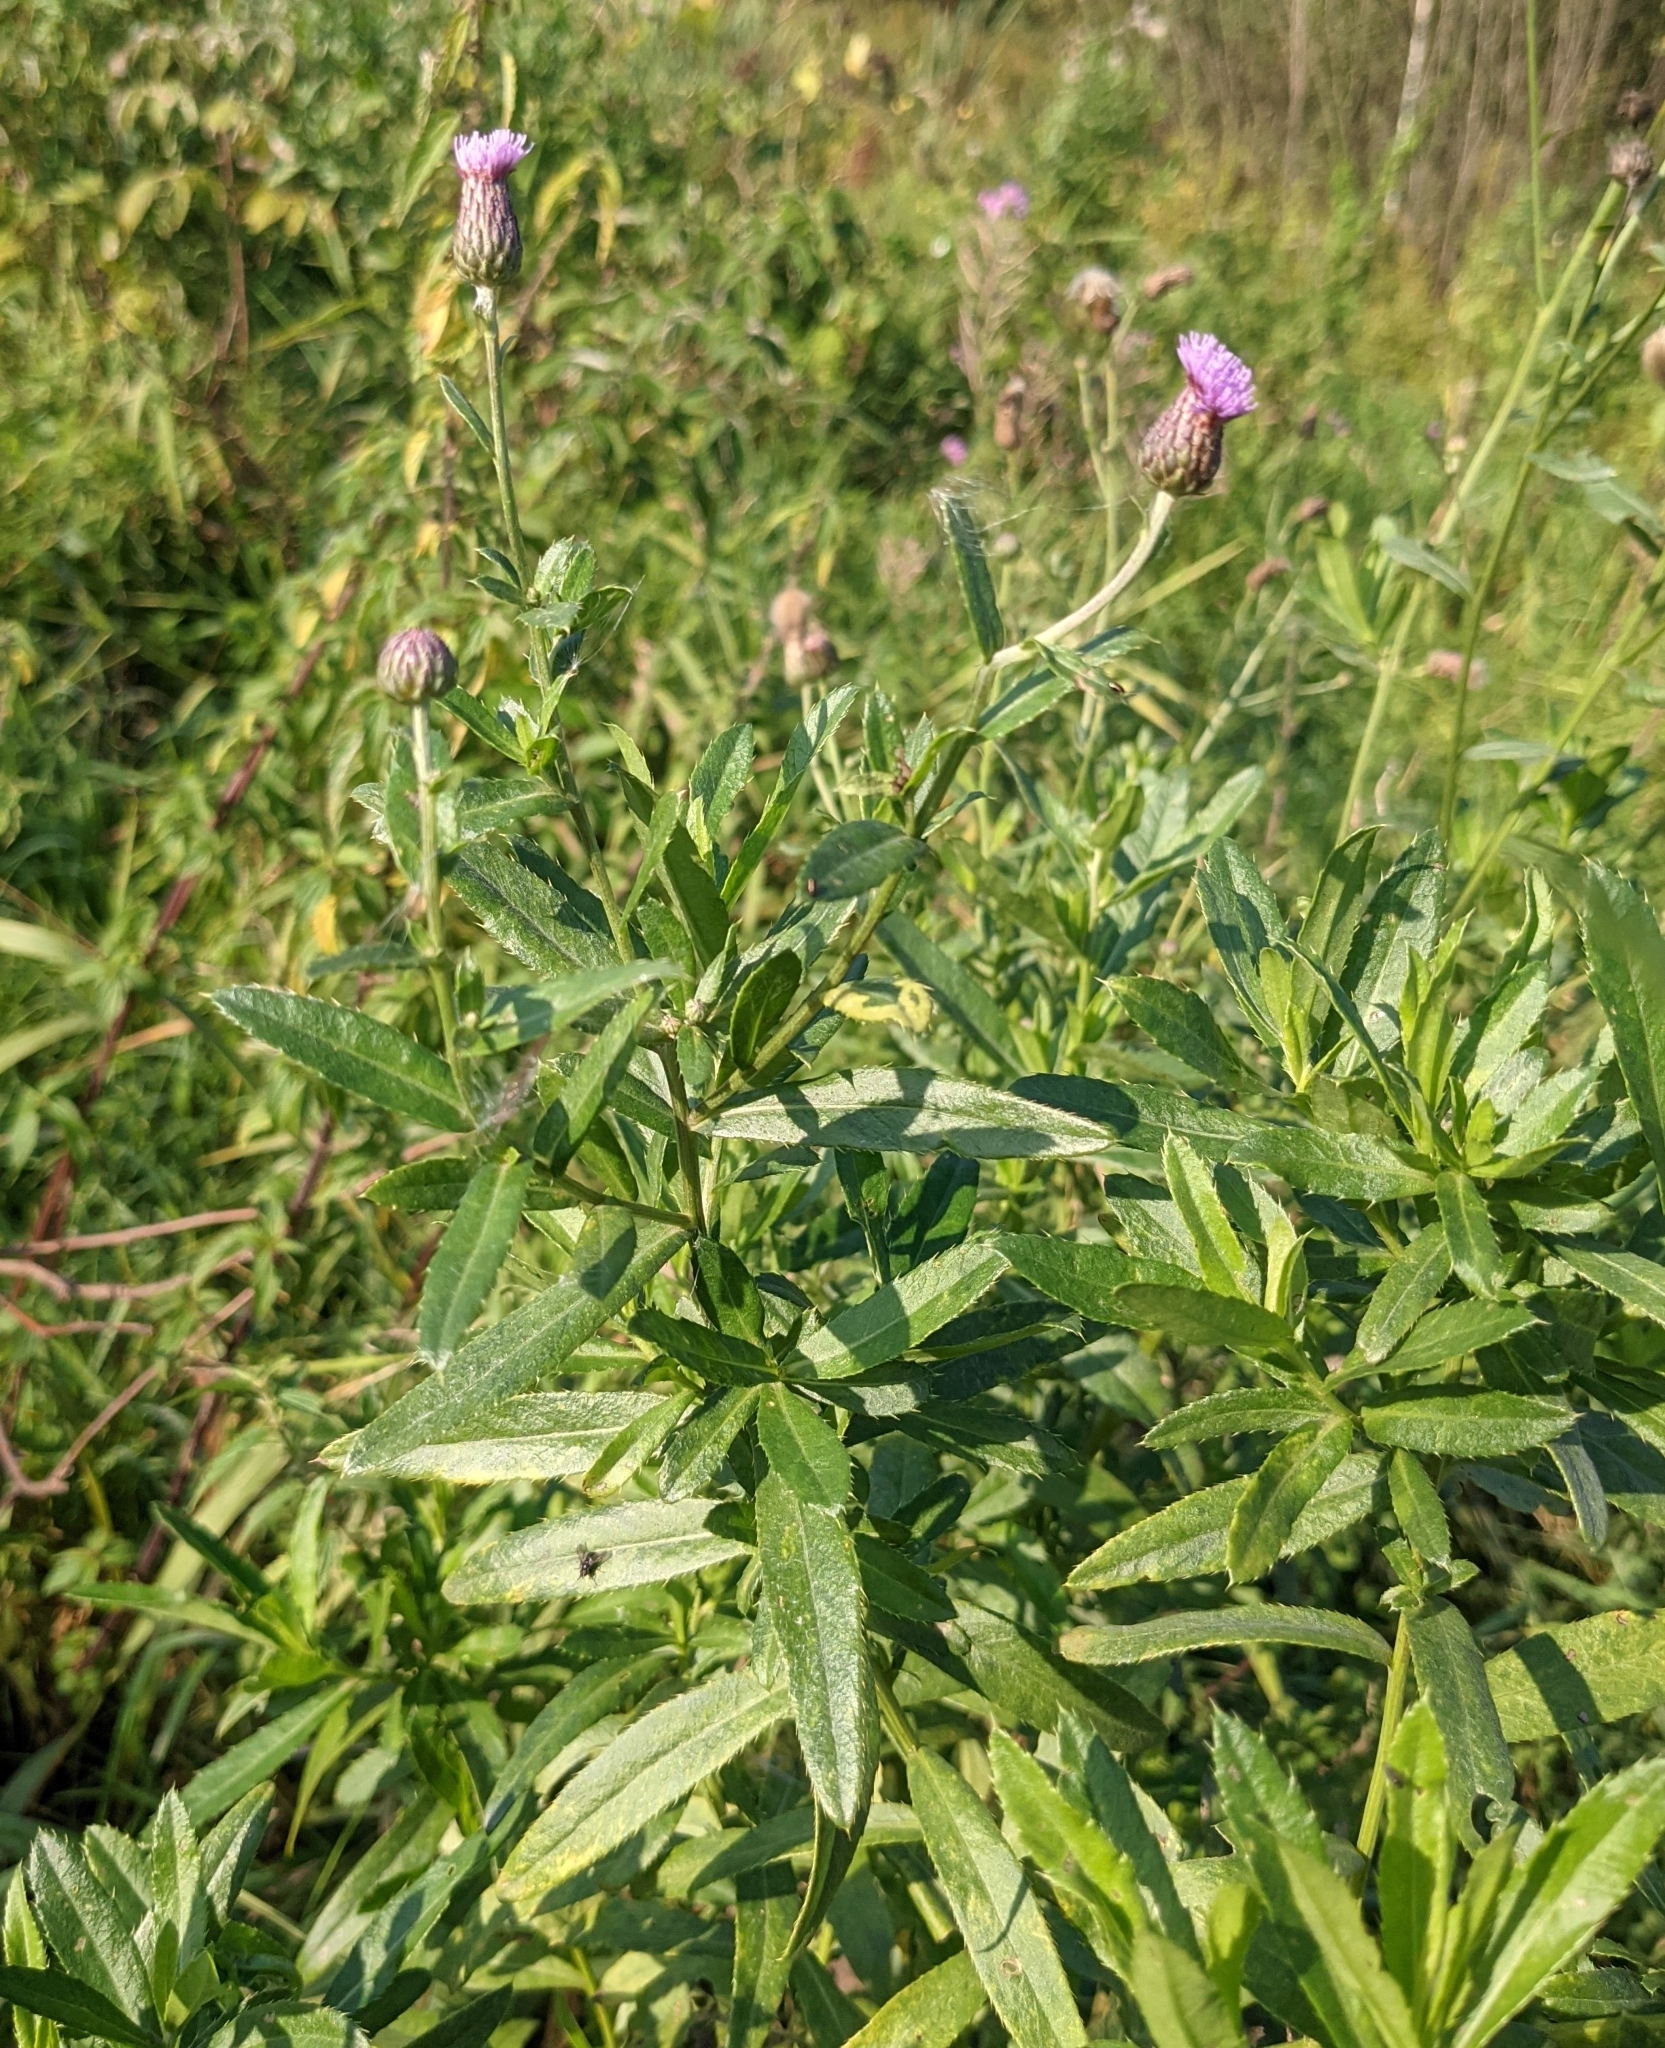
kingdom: Plantae
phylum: Tracheophyta
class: Magnoliopsida
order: Asterales
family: Asteraceae
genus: Cirsium
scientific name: Cirsium arvense
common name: Creeping thistle
